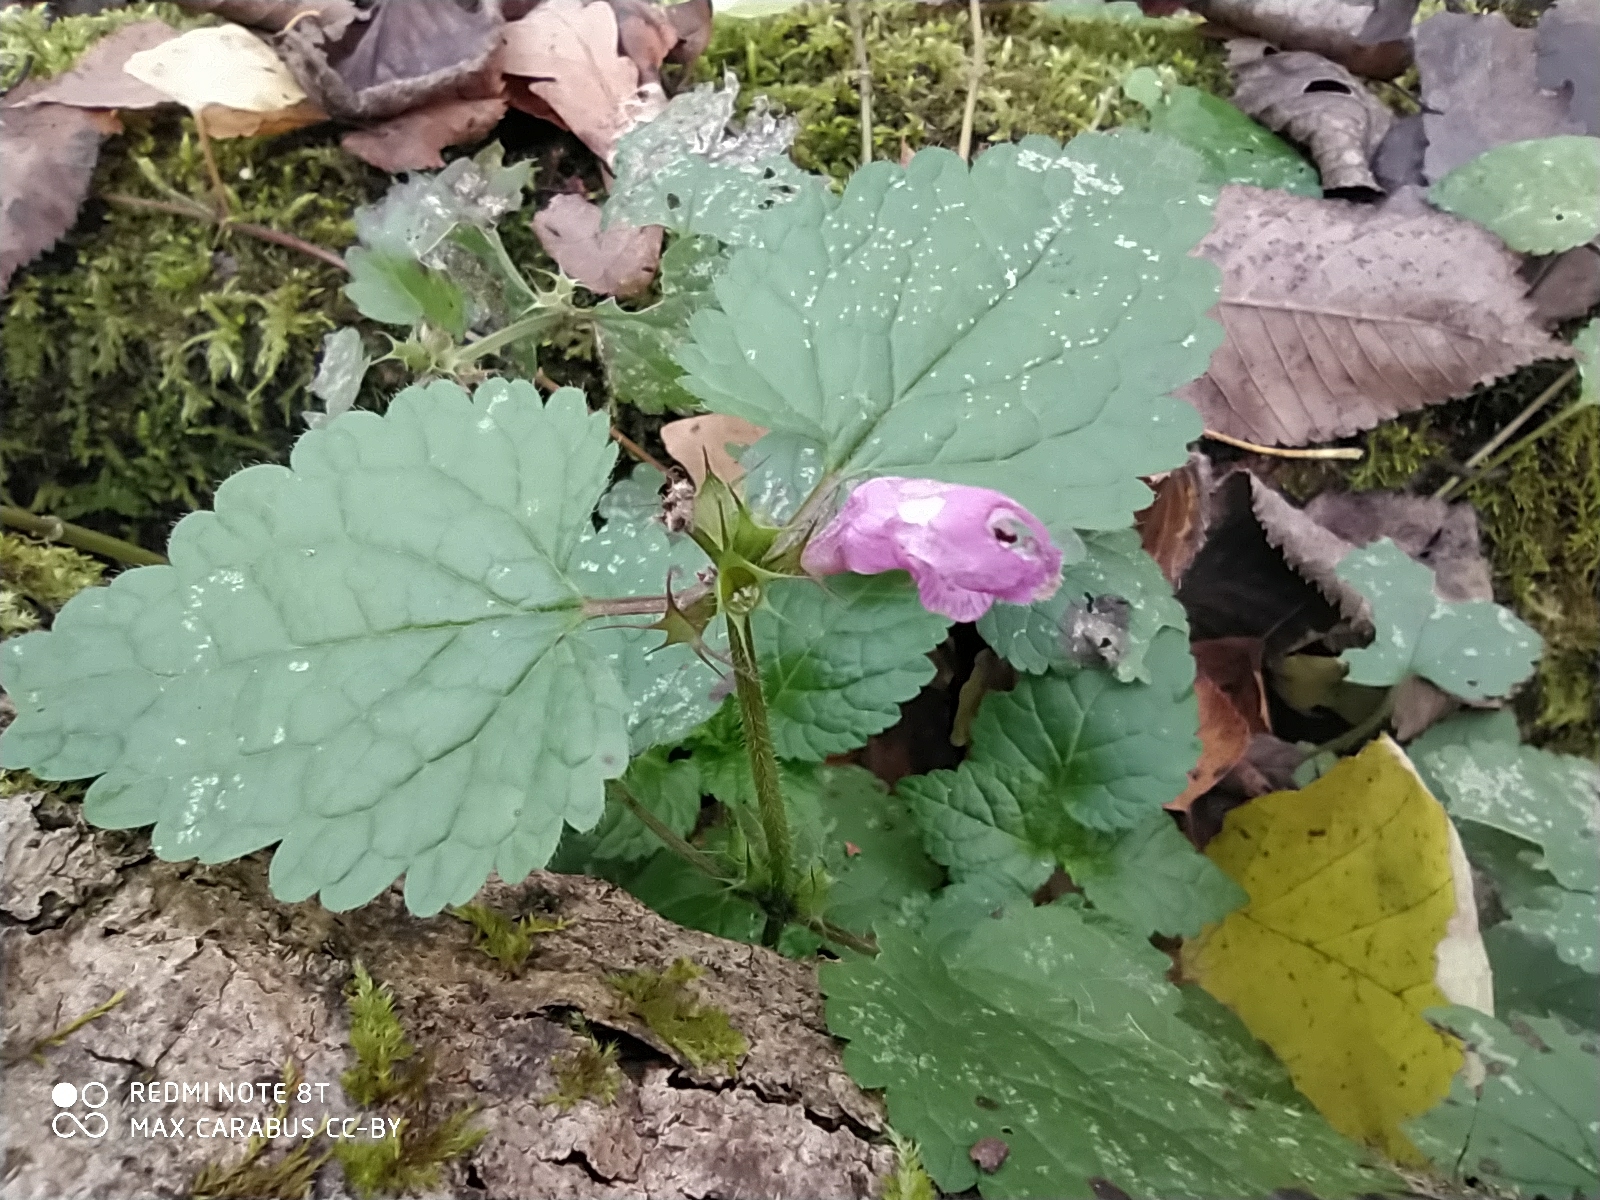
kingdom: Plantae
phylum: Tracheophyta
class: Magnoliopsida
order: Lamiales
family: Lamiaceae
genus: Lamium
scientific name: Lamium maculatum
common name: Spotted dead-nettle
